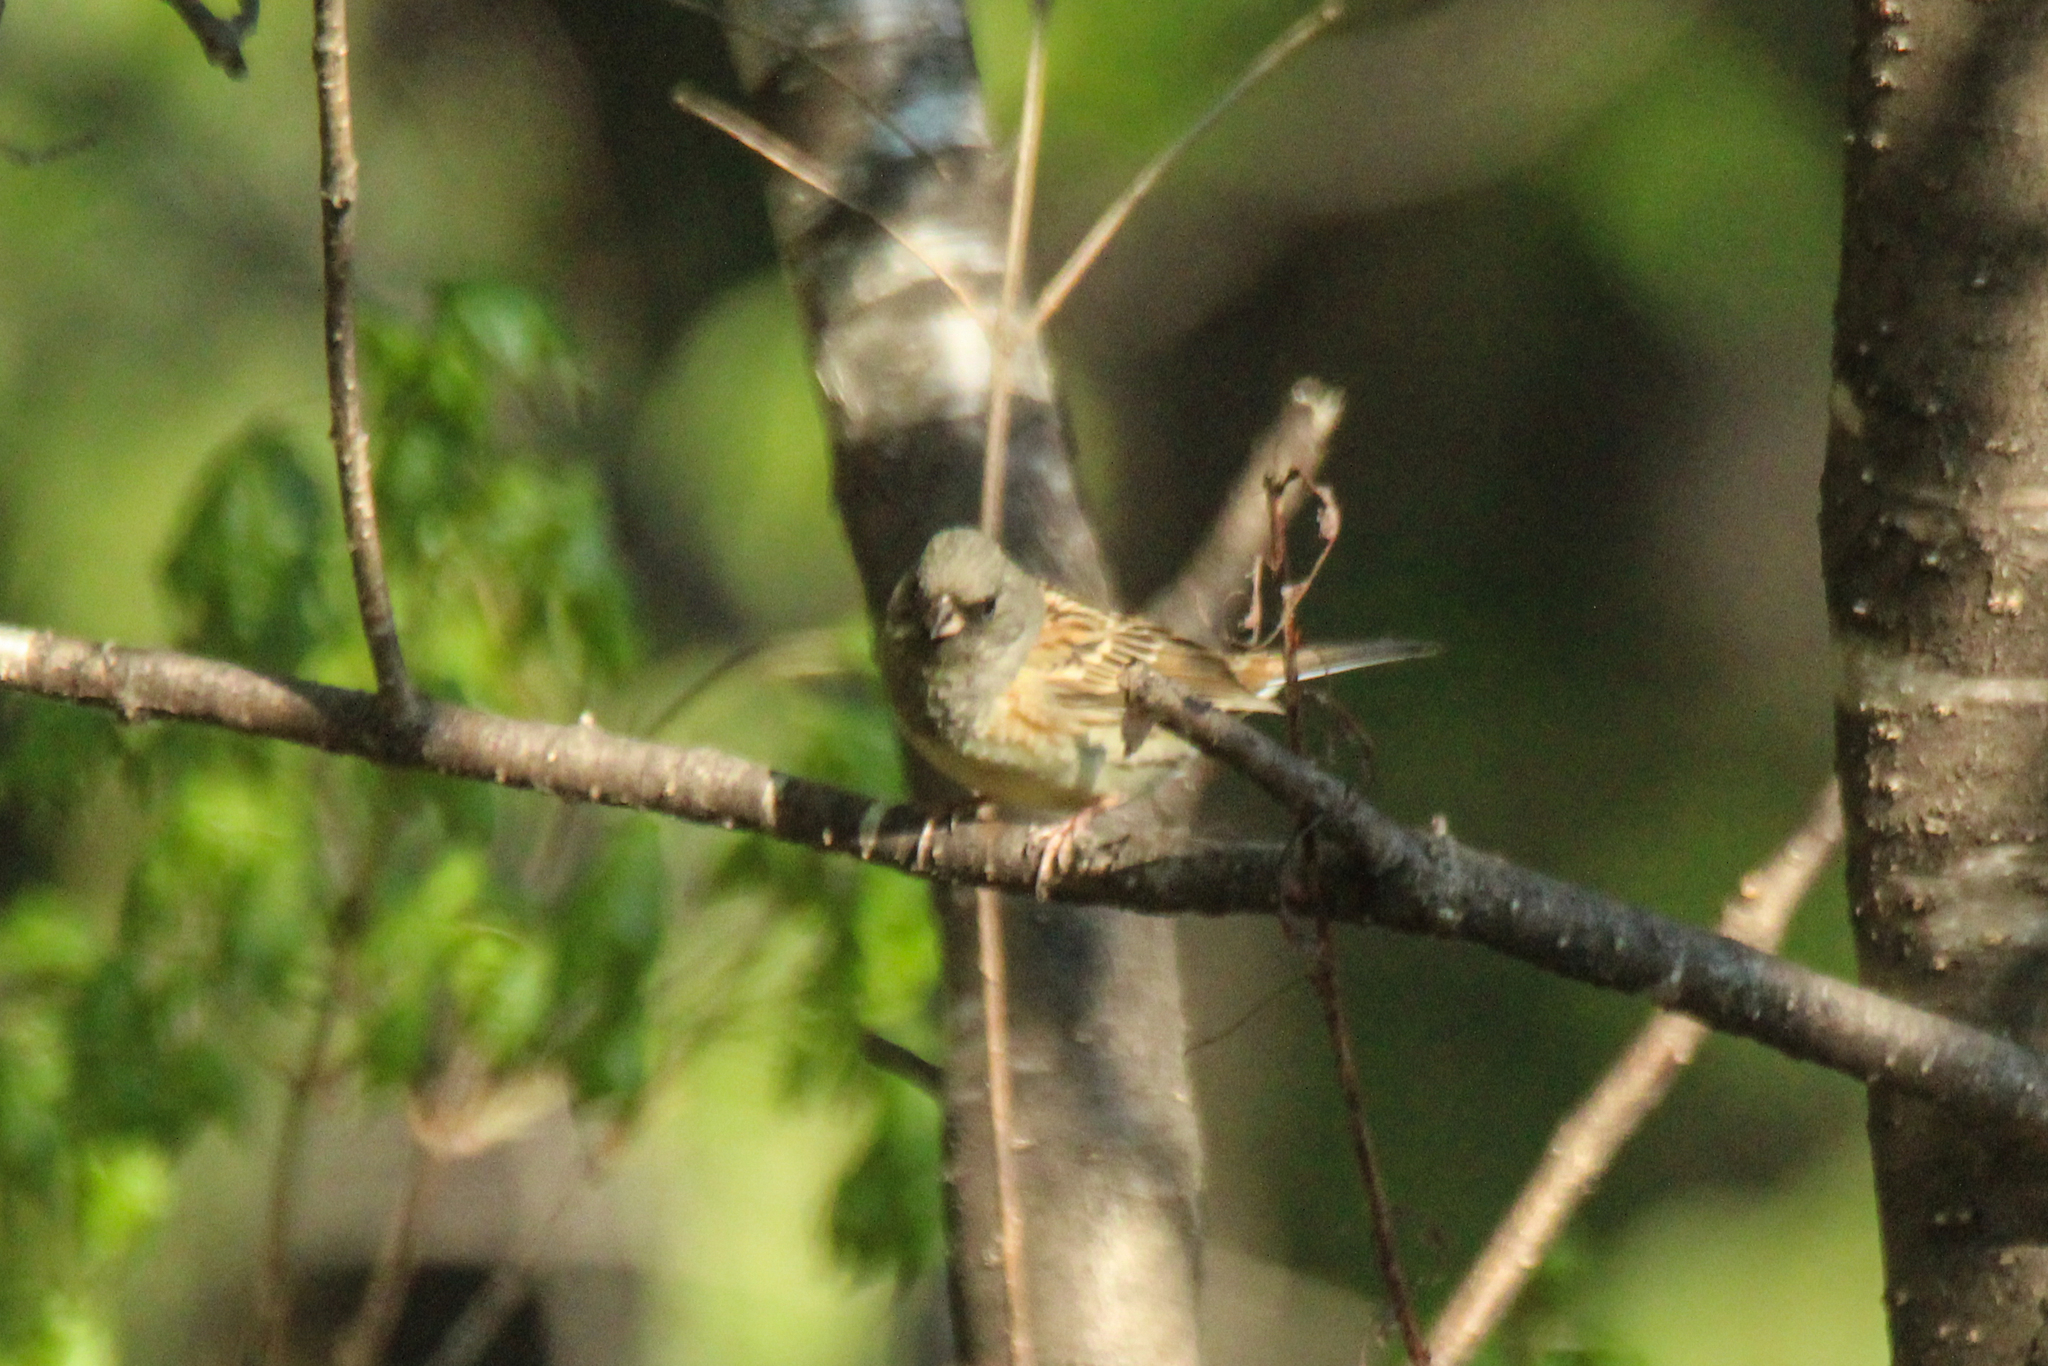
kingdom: Animalia
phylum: Chordata
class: Aves
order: Passeriformes
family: Emberizidae
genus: Emberiza
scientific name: Emberiza spodocephala
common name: Black-faced bunting
